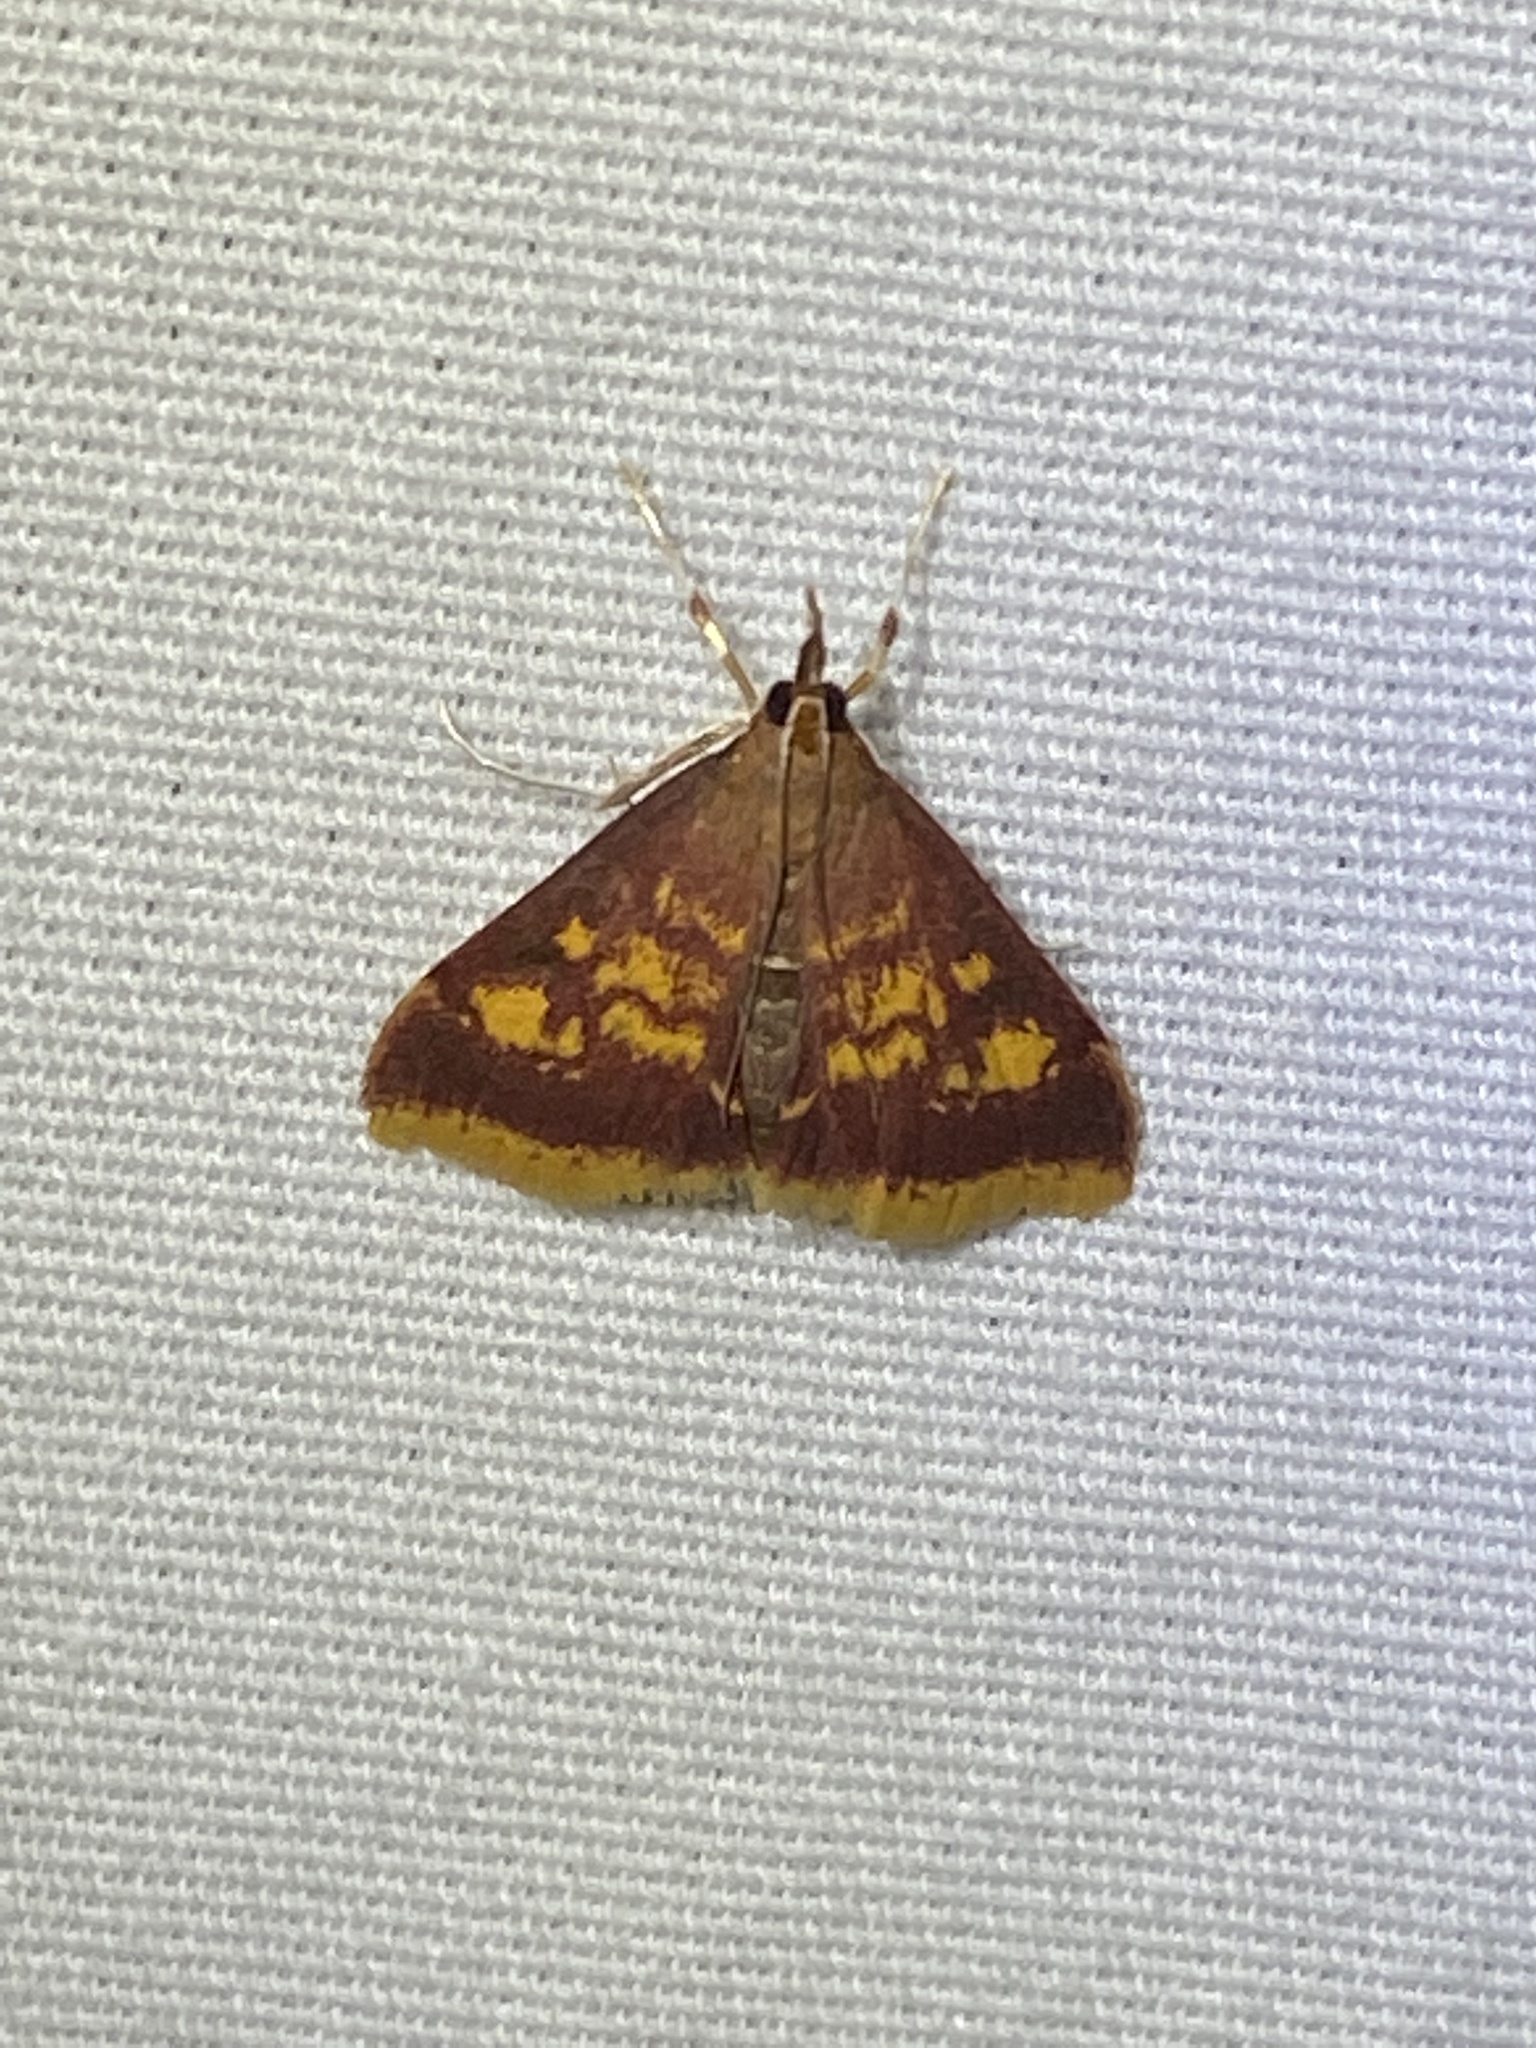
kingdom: Animalia
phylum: Arthropoda
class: Insecta
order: Lepidoptera
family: Crambidae
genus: Pyrausta
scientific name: Pyrausta acrionalis
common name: Mint-loving pyrausta moth
